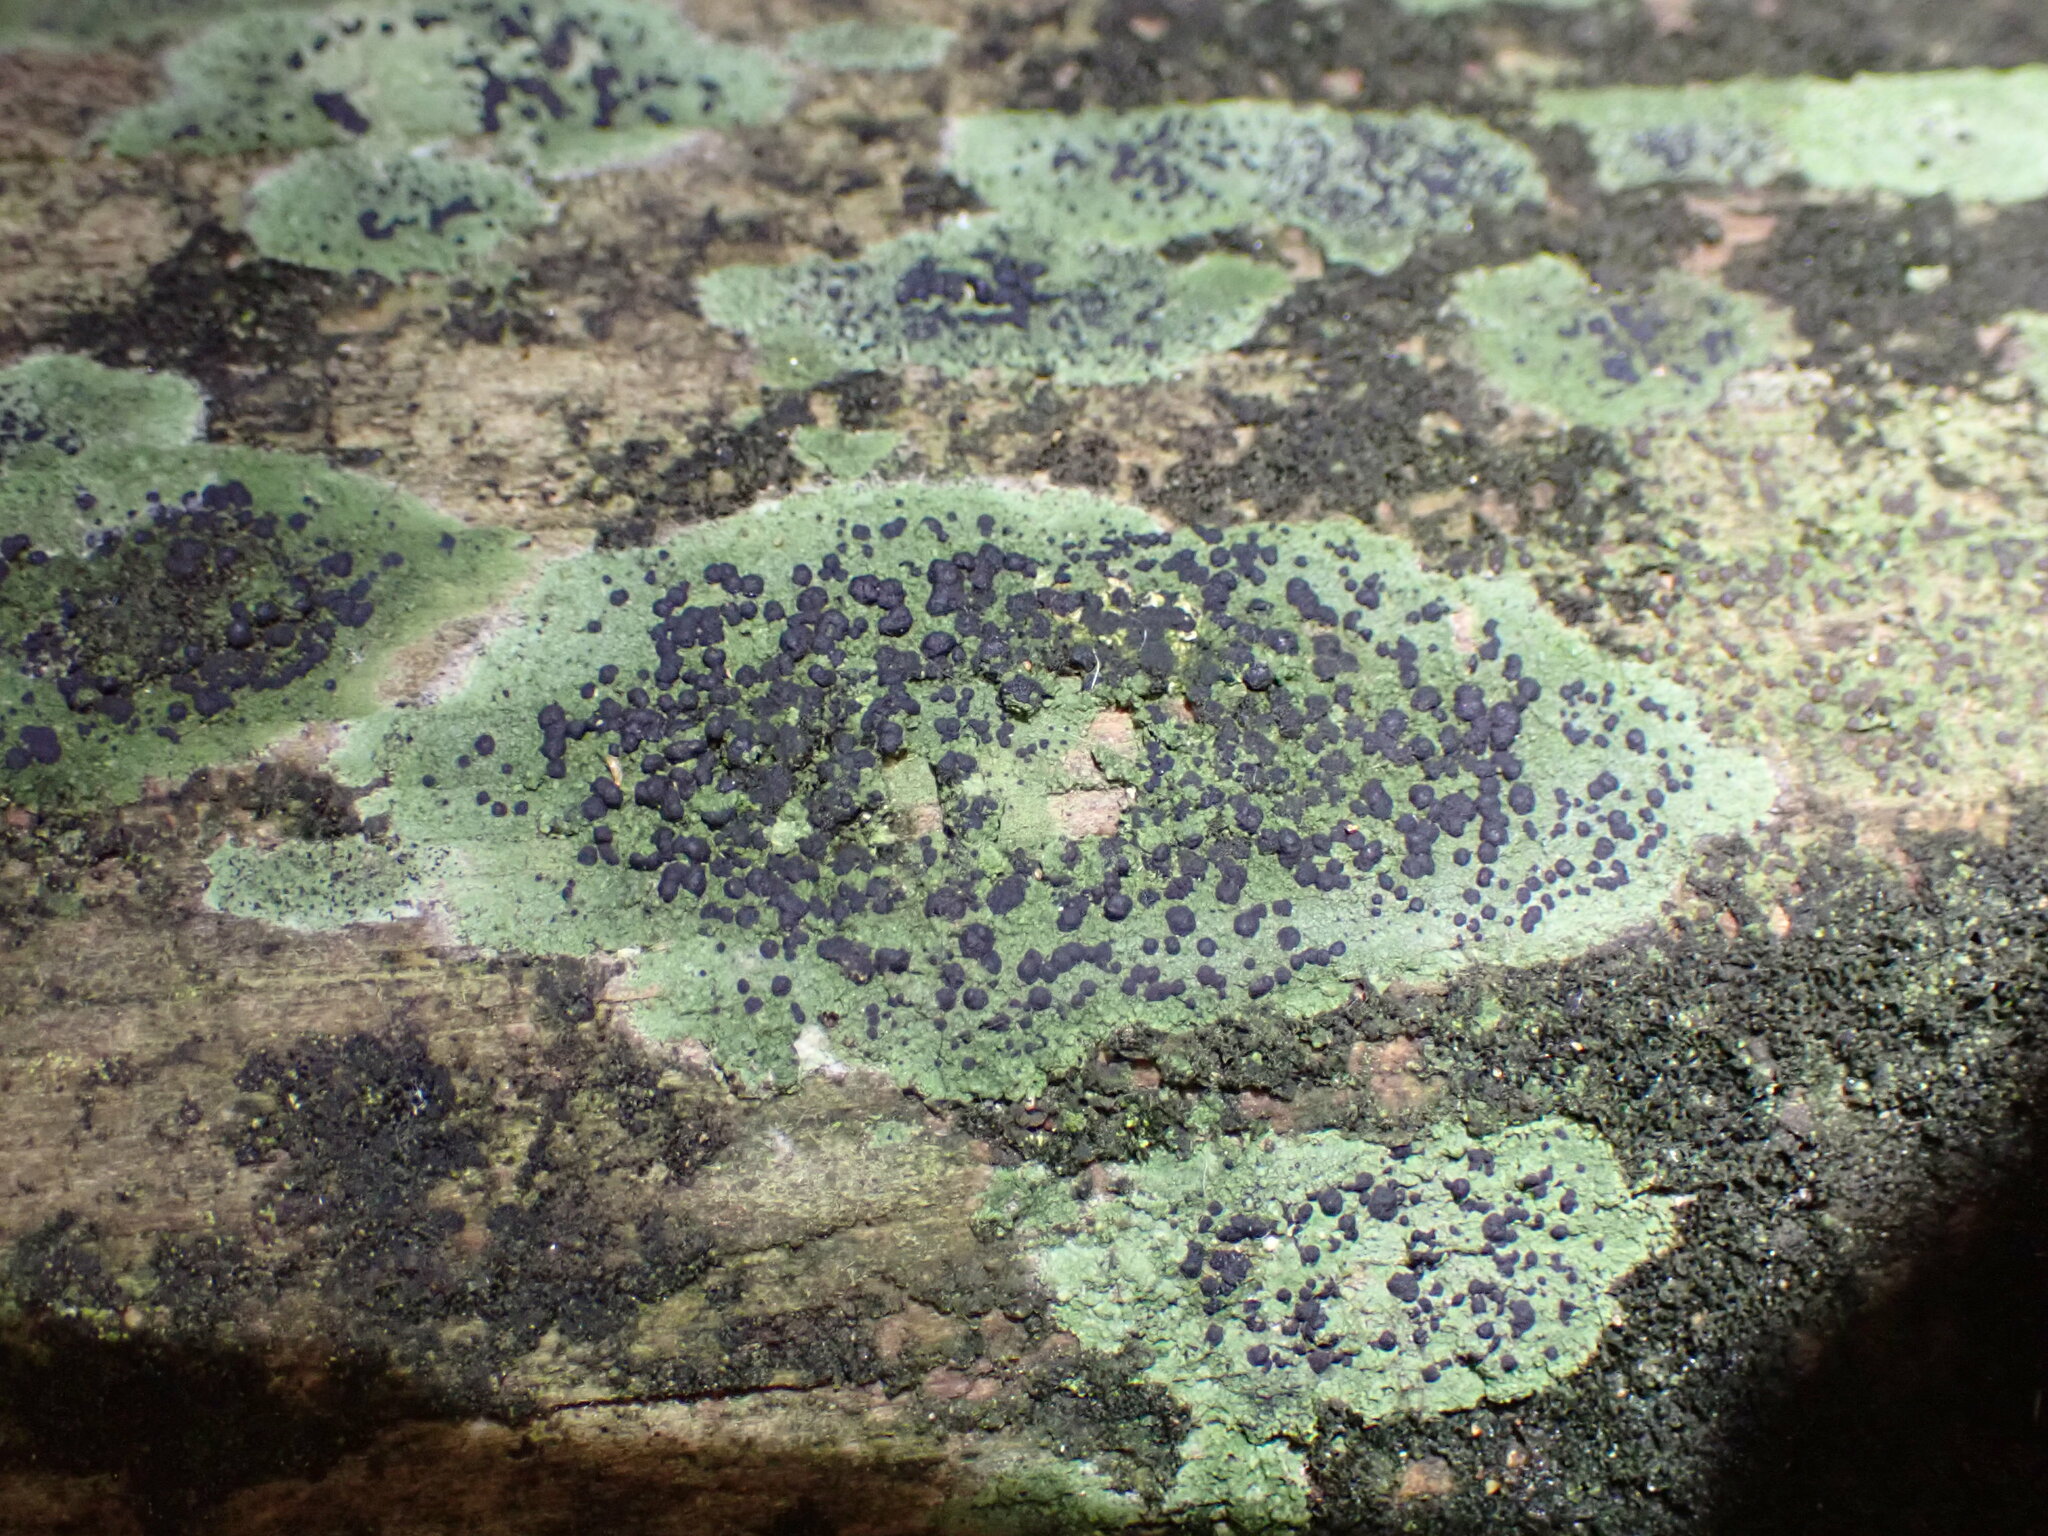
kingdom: Fungi
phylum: Ascomycota
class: Lecanoromycetes
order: Lecanorales
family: Byssolomataceae
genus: Byssoloma
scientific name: Byssoloma
